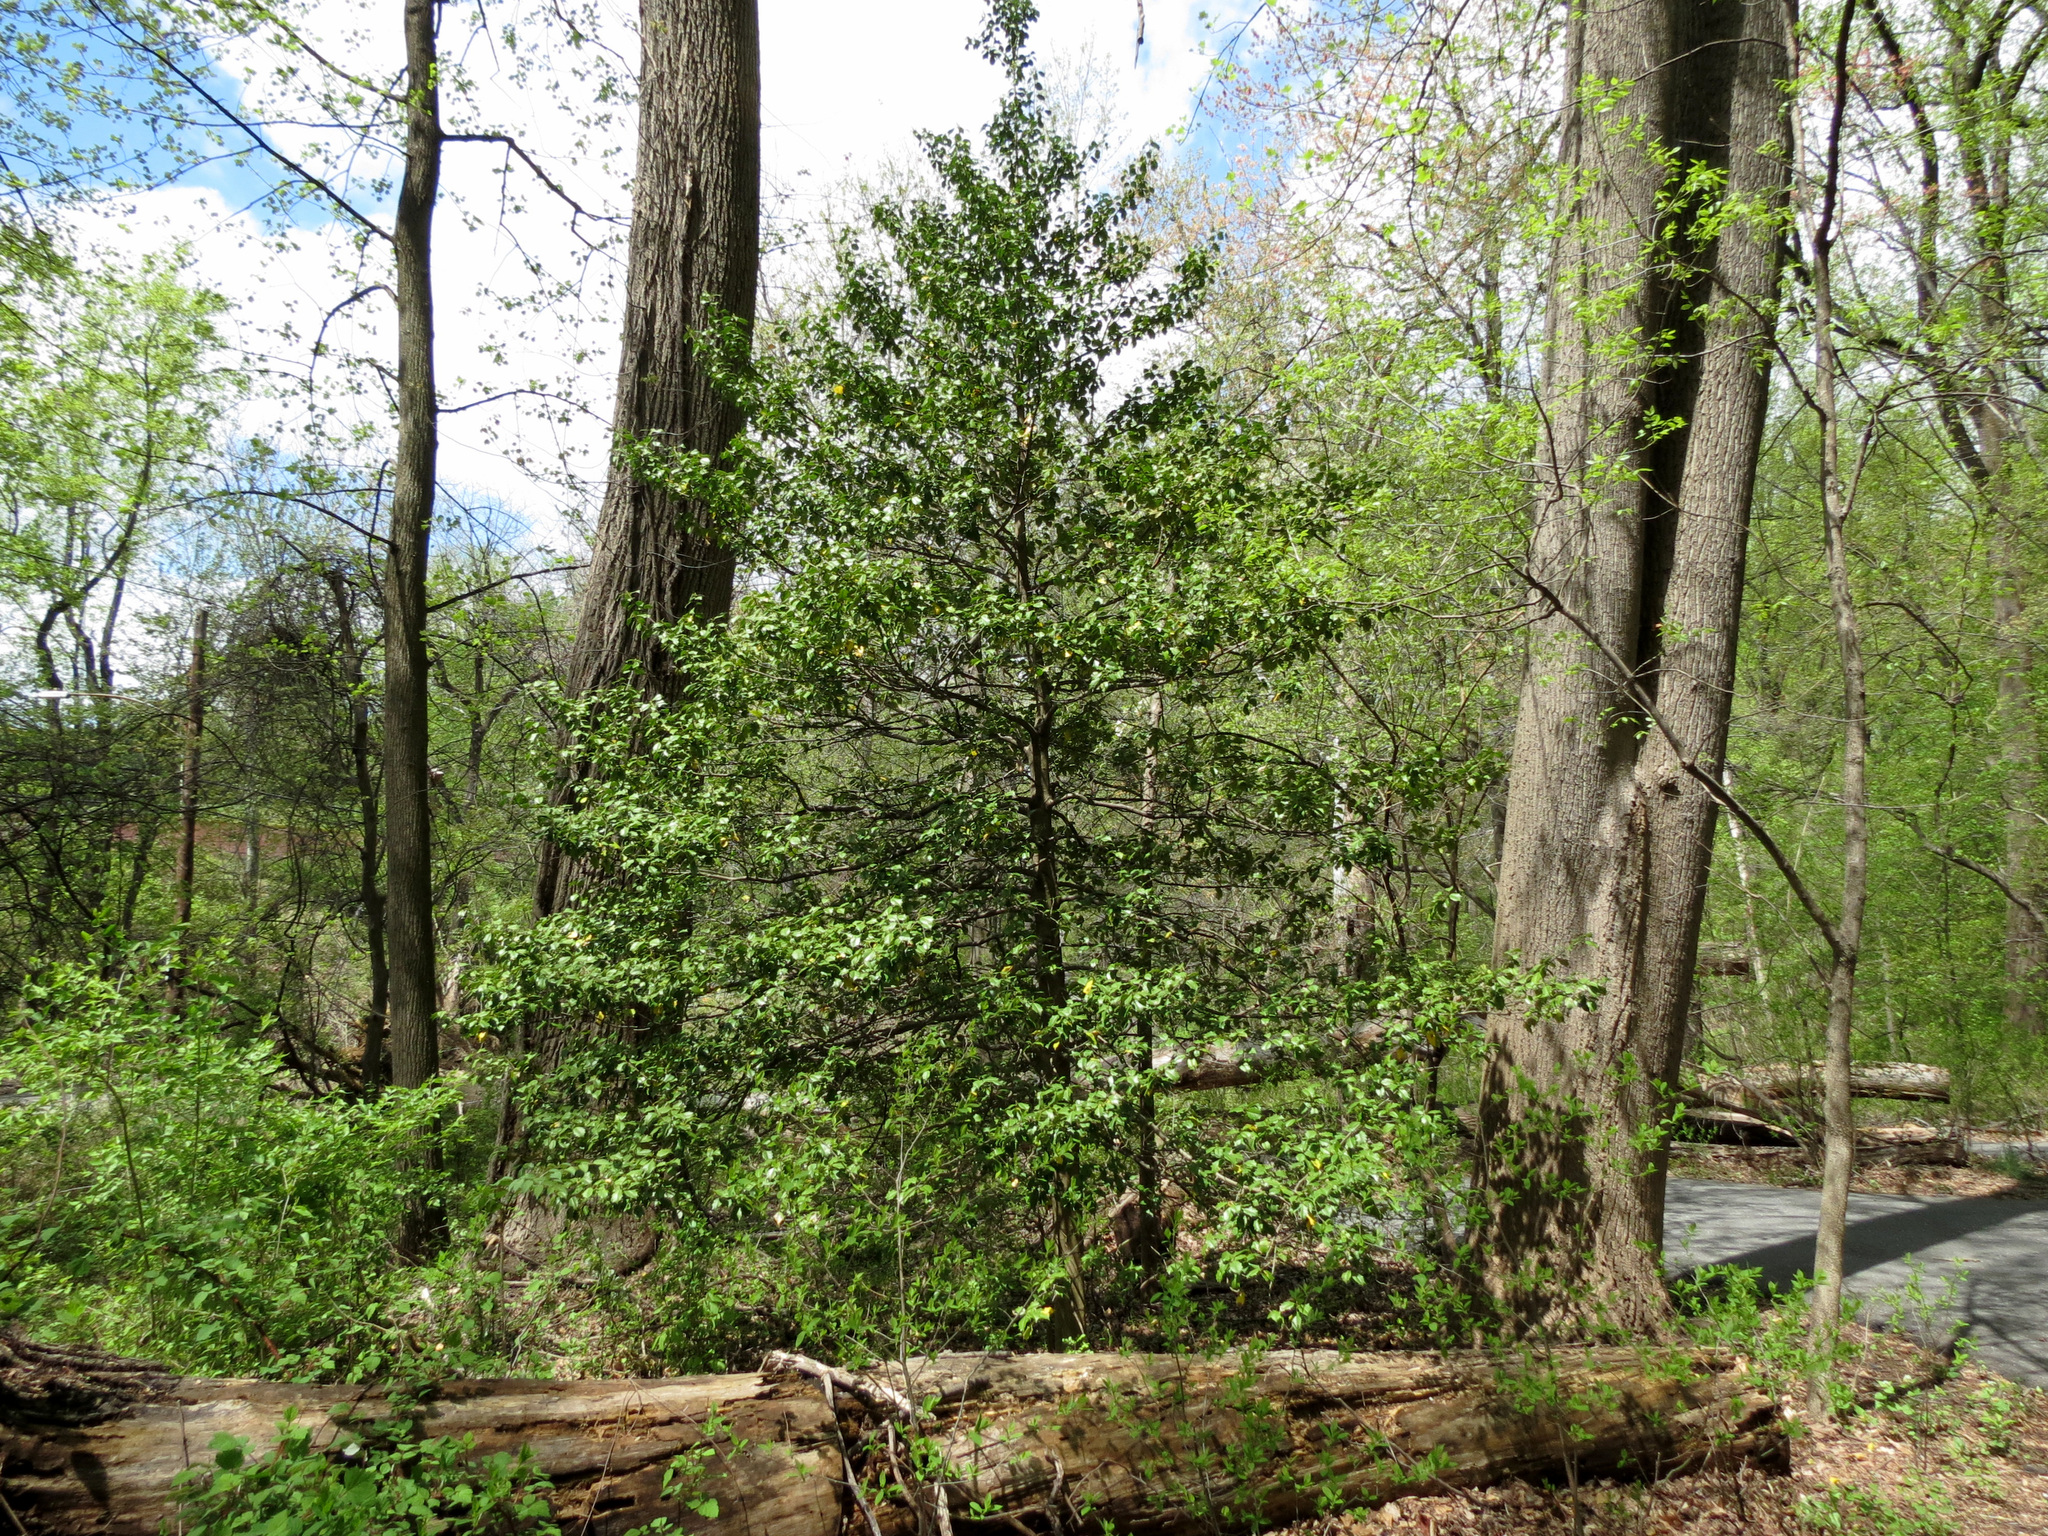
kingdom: Plantae
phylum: Tracheophyta
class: Magnoliopsida
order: Aquifoliales
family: Aquifoliaceae
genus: Ilex
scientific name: Ilex opaca
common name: American holly
